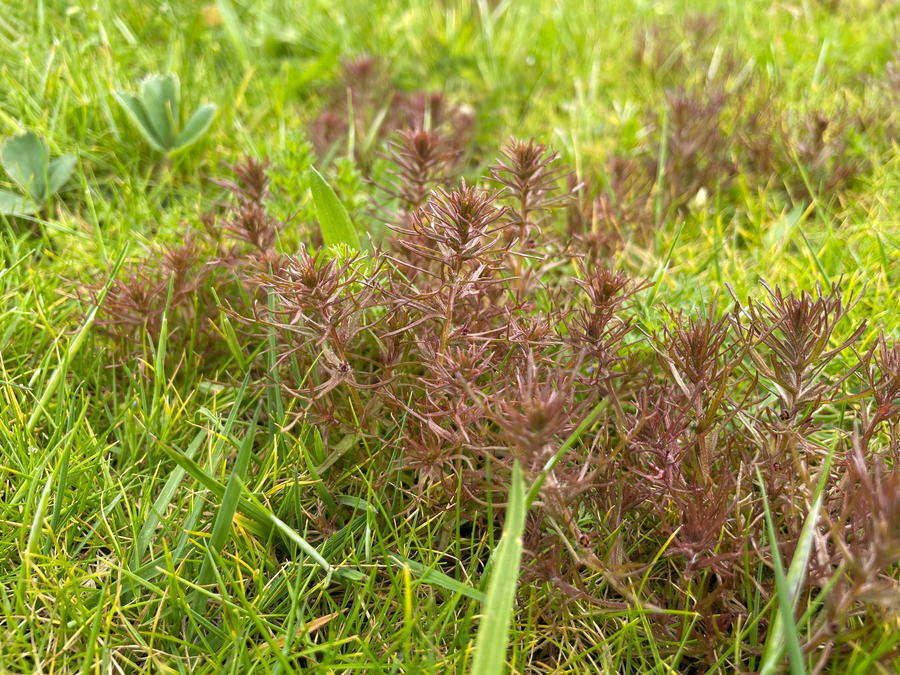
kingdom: Plantae
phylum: Tracheophyta
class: Magnoliopsida
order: Lamiales
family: Orobanchaceae
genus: Triphysaria
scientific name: Triphysaria pusilla
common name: Dwarf false owl-clover
